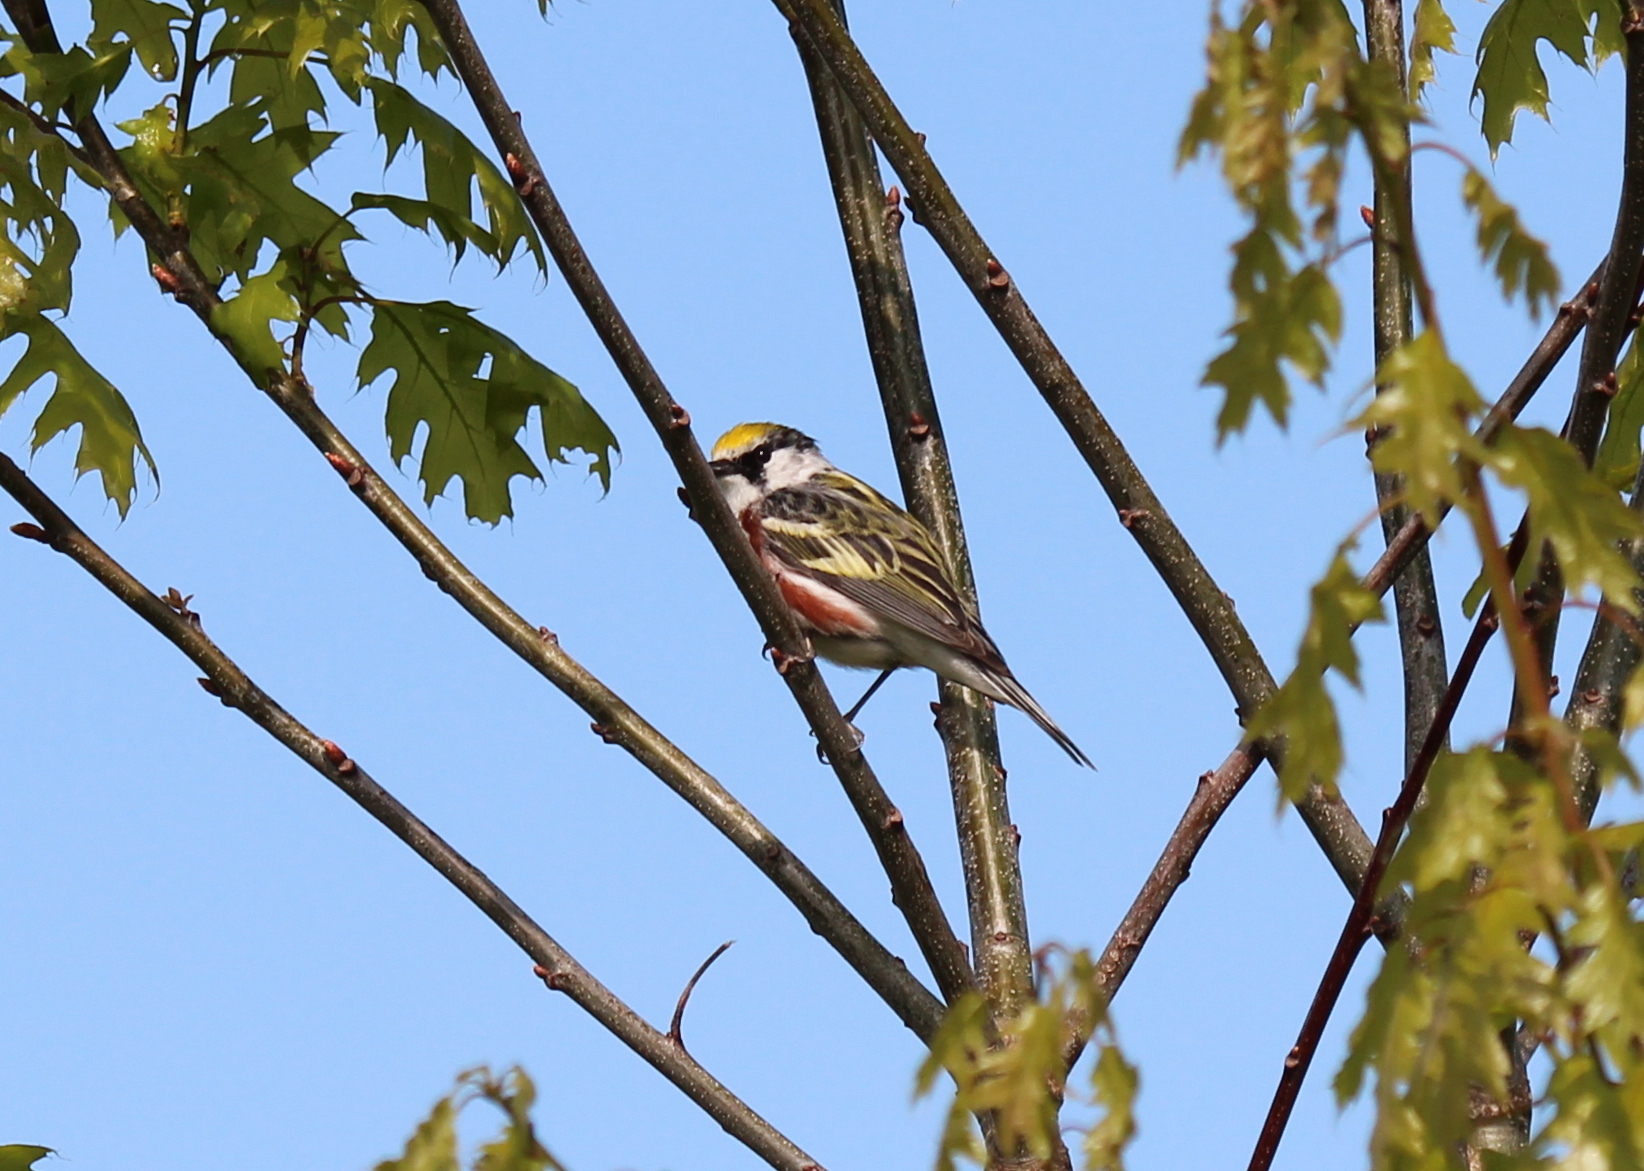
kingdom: Animalia
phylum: Chordata
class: Aves
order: Passeriformes
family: Parulidae
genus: Setophaga
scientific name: Setophaga pensylvanica
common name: Chestnut-sided warbler
